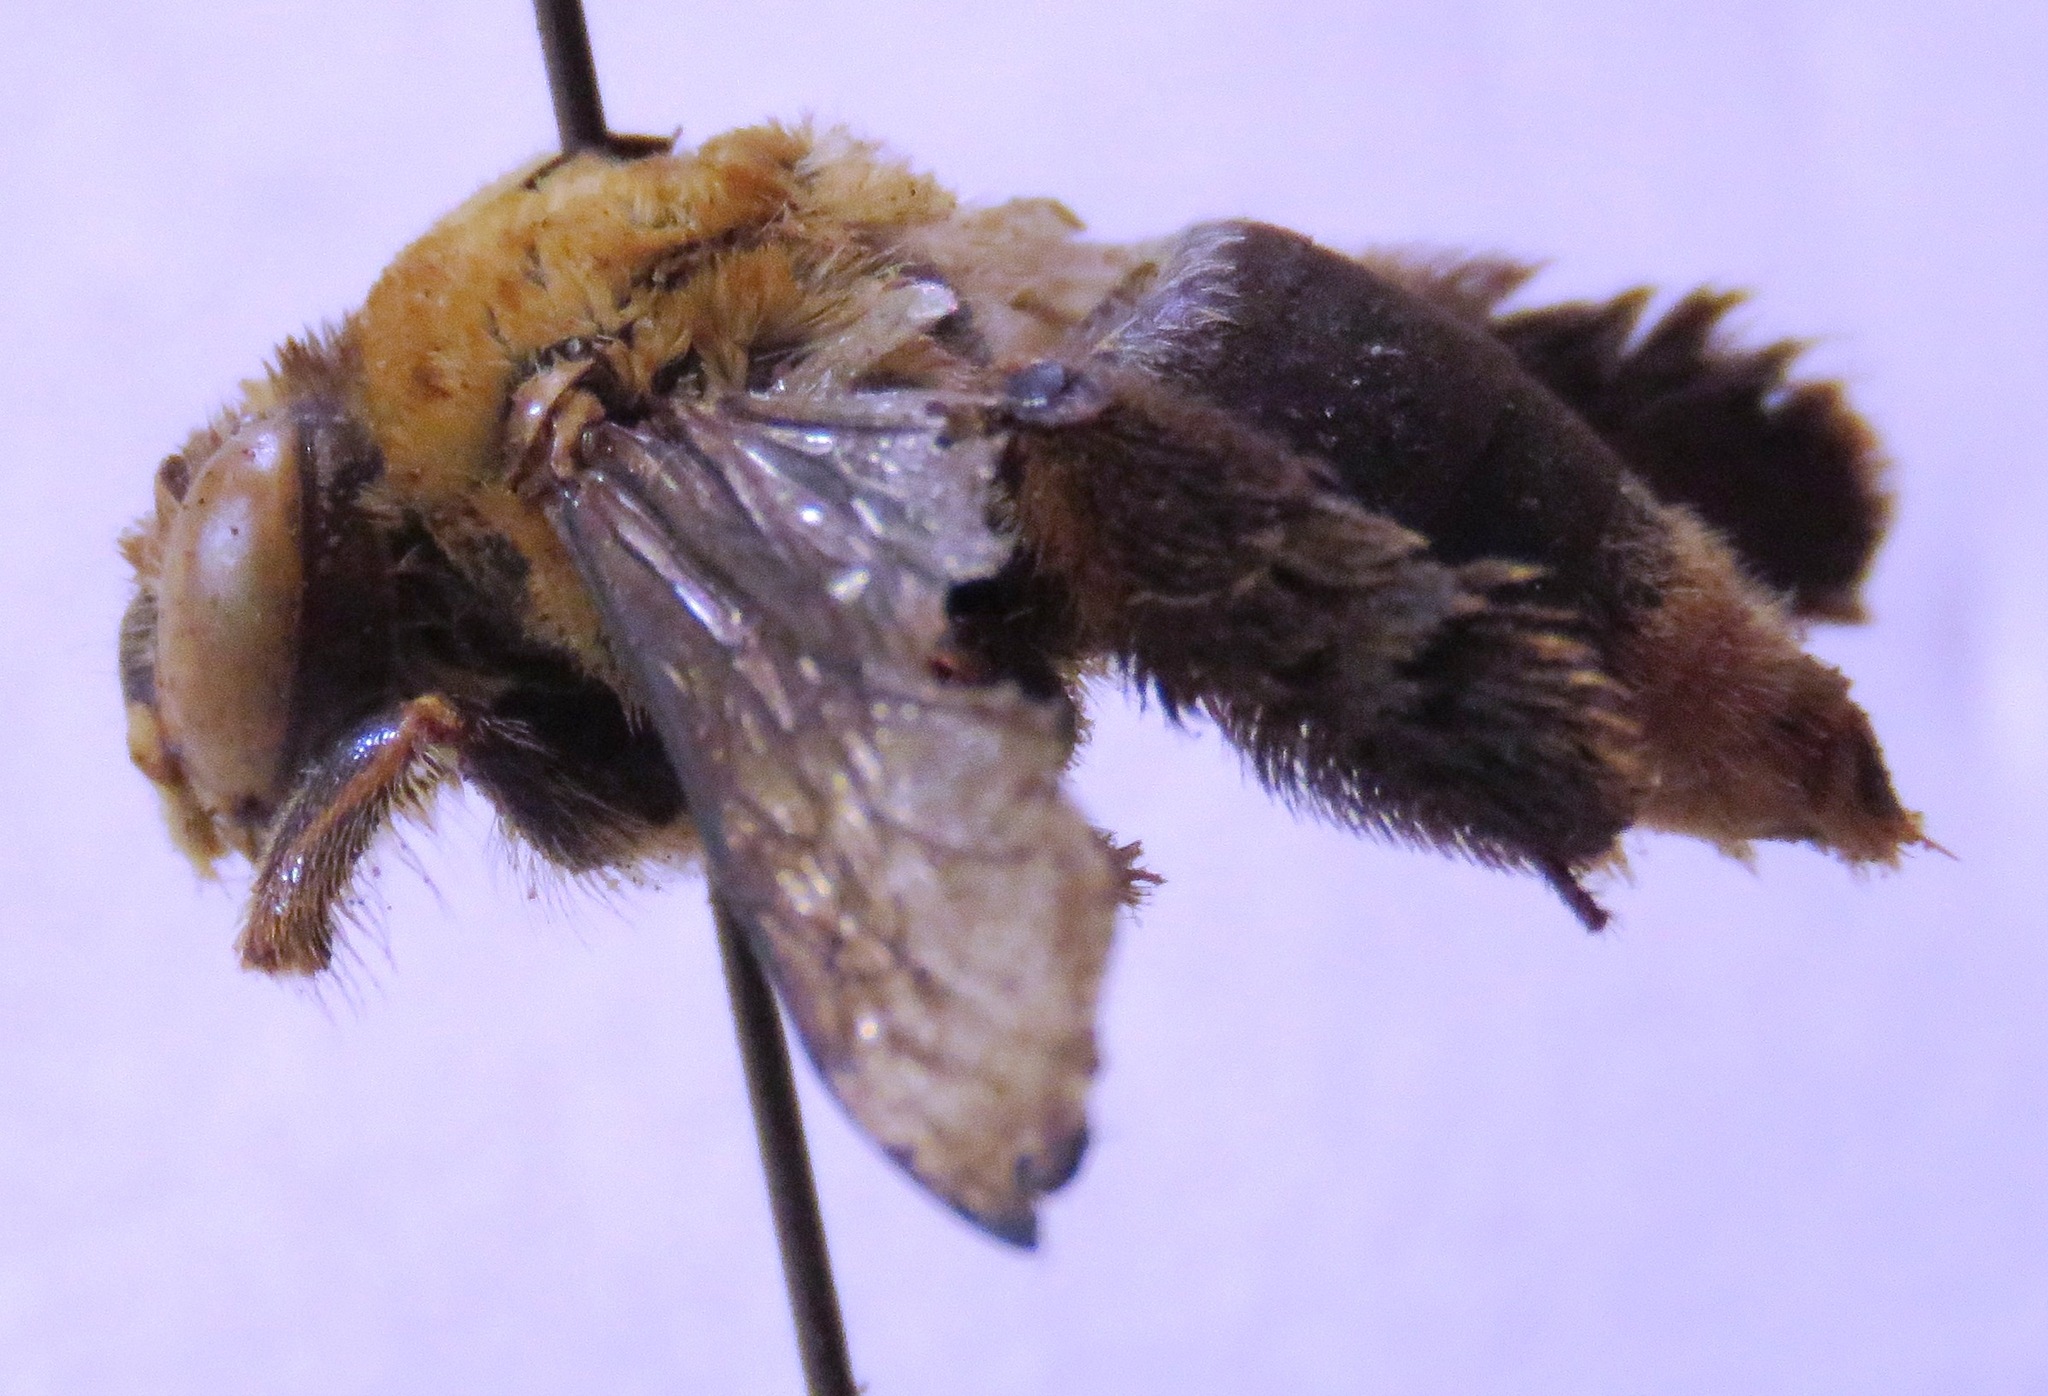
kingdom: Animalia
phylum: Arthropoda
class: Insecta
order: Hymenoptera
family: Apidae
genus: Centris
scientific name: Centris varia
